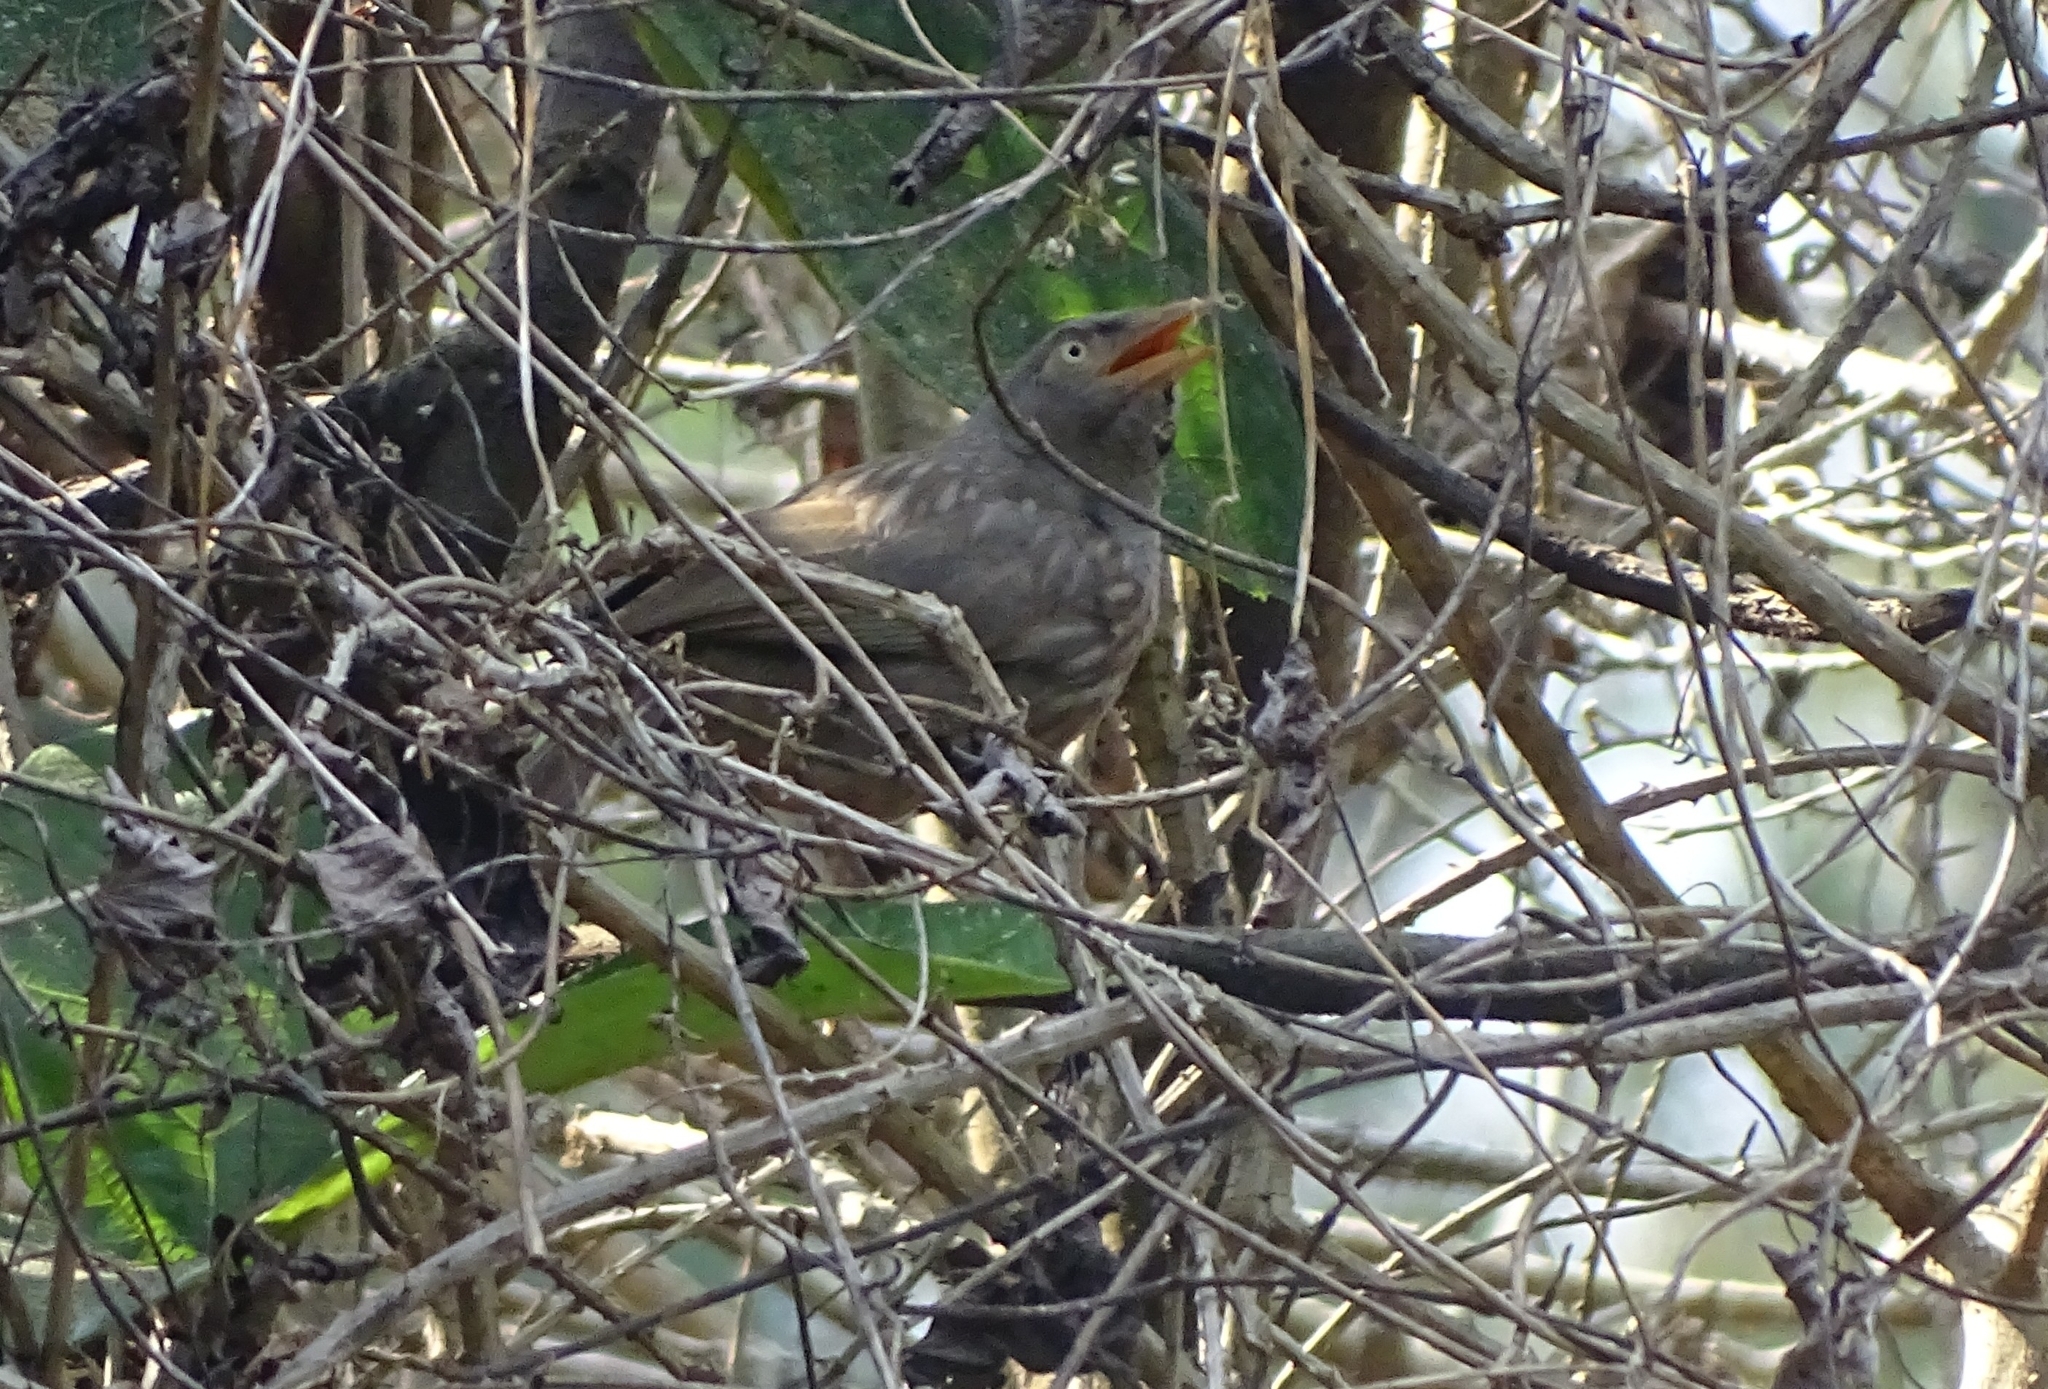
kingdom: Animalia
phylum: Chordata
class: Aves
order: Passeriformes
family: Leiothrichidae
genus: Turdoides
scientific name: Turdoides striata
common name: Jungle babbler
